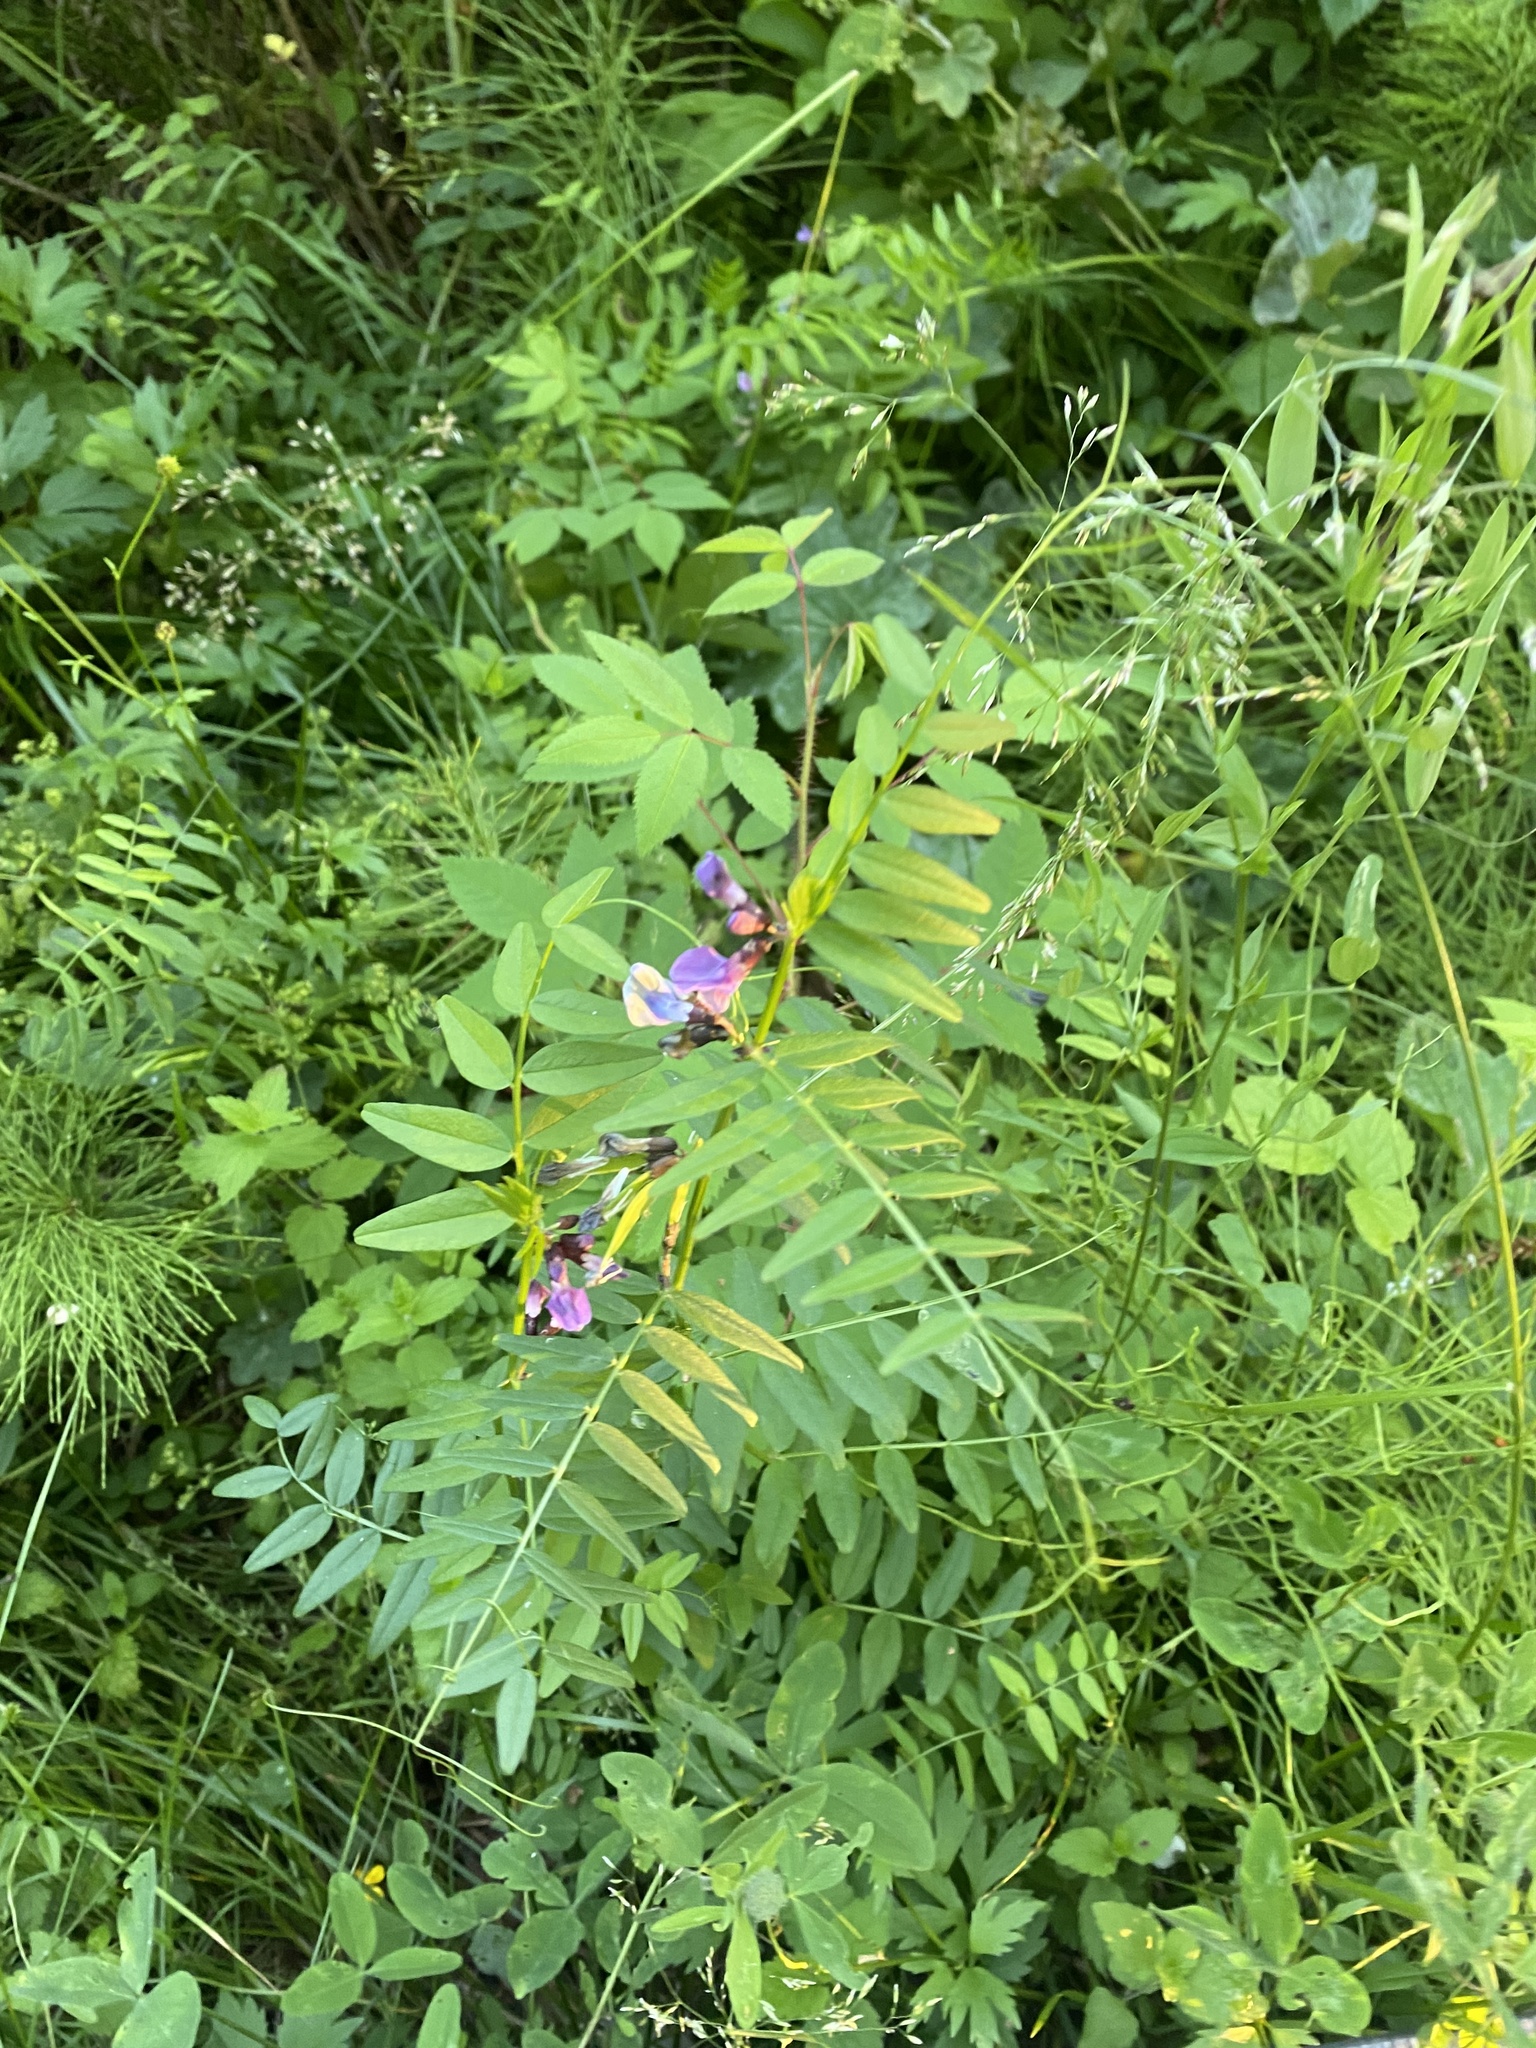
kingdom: Plantae
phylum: Tracheophyta
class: Magnoliopsida
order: Fabales
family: Fabaceae
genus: Vicia
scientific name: Vicia sepium
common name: Bush vetch
